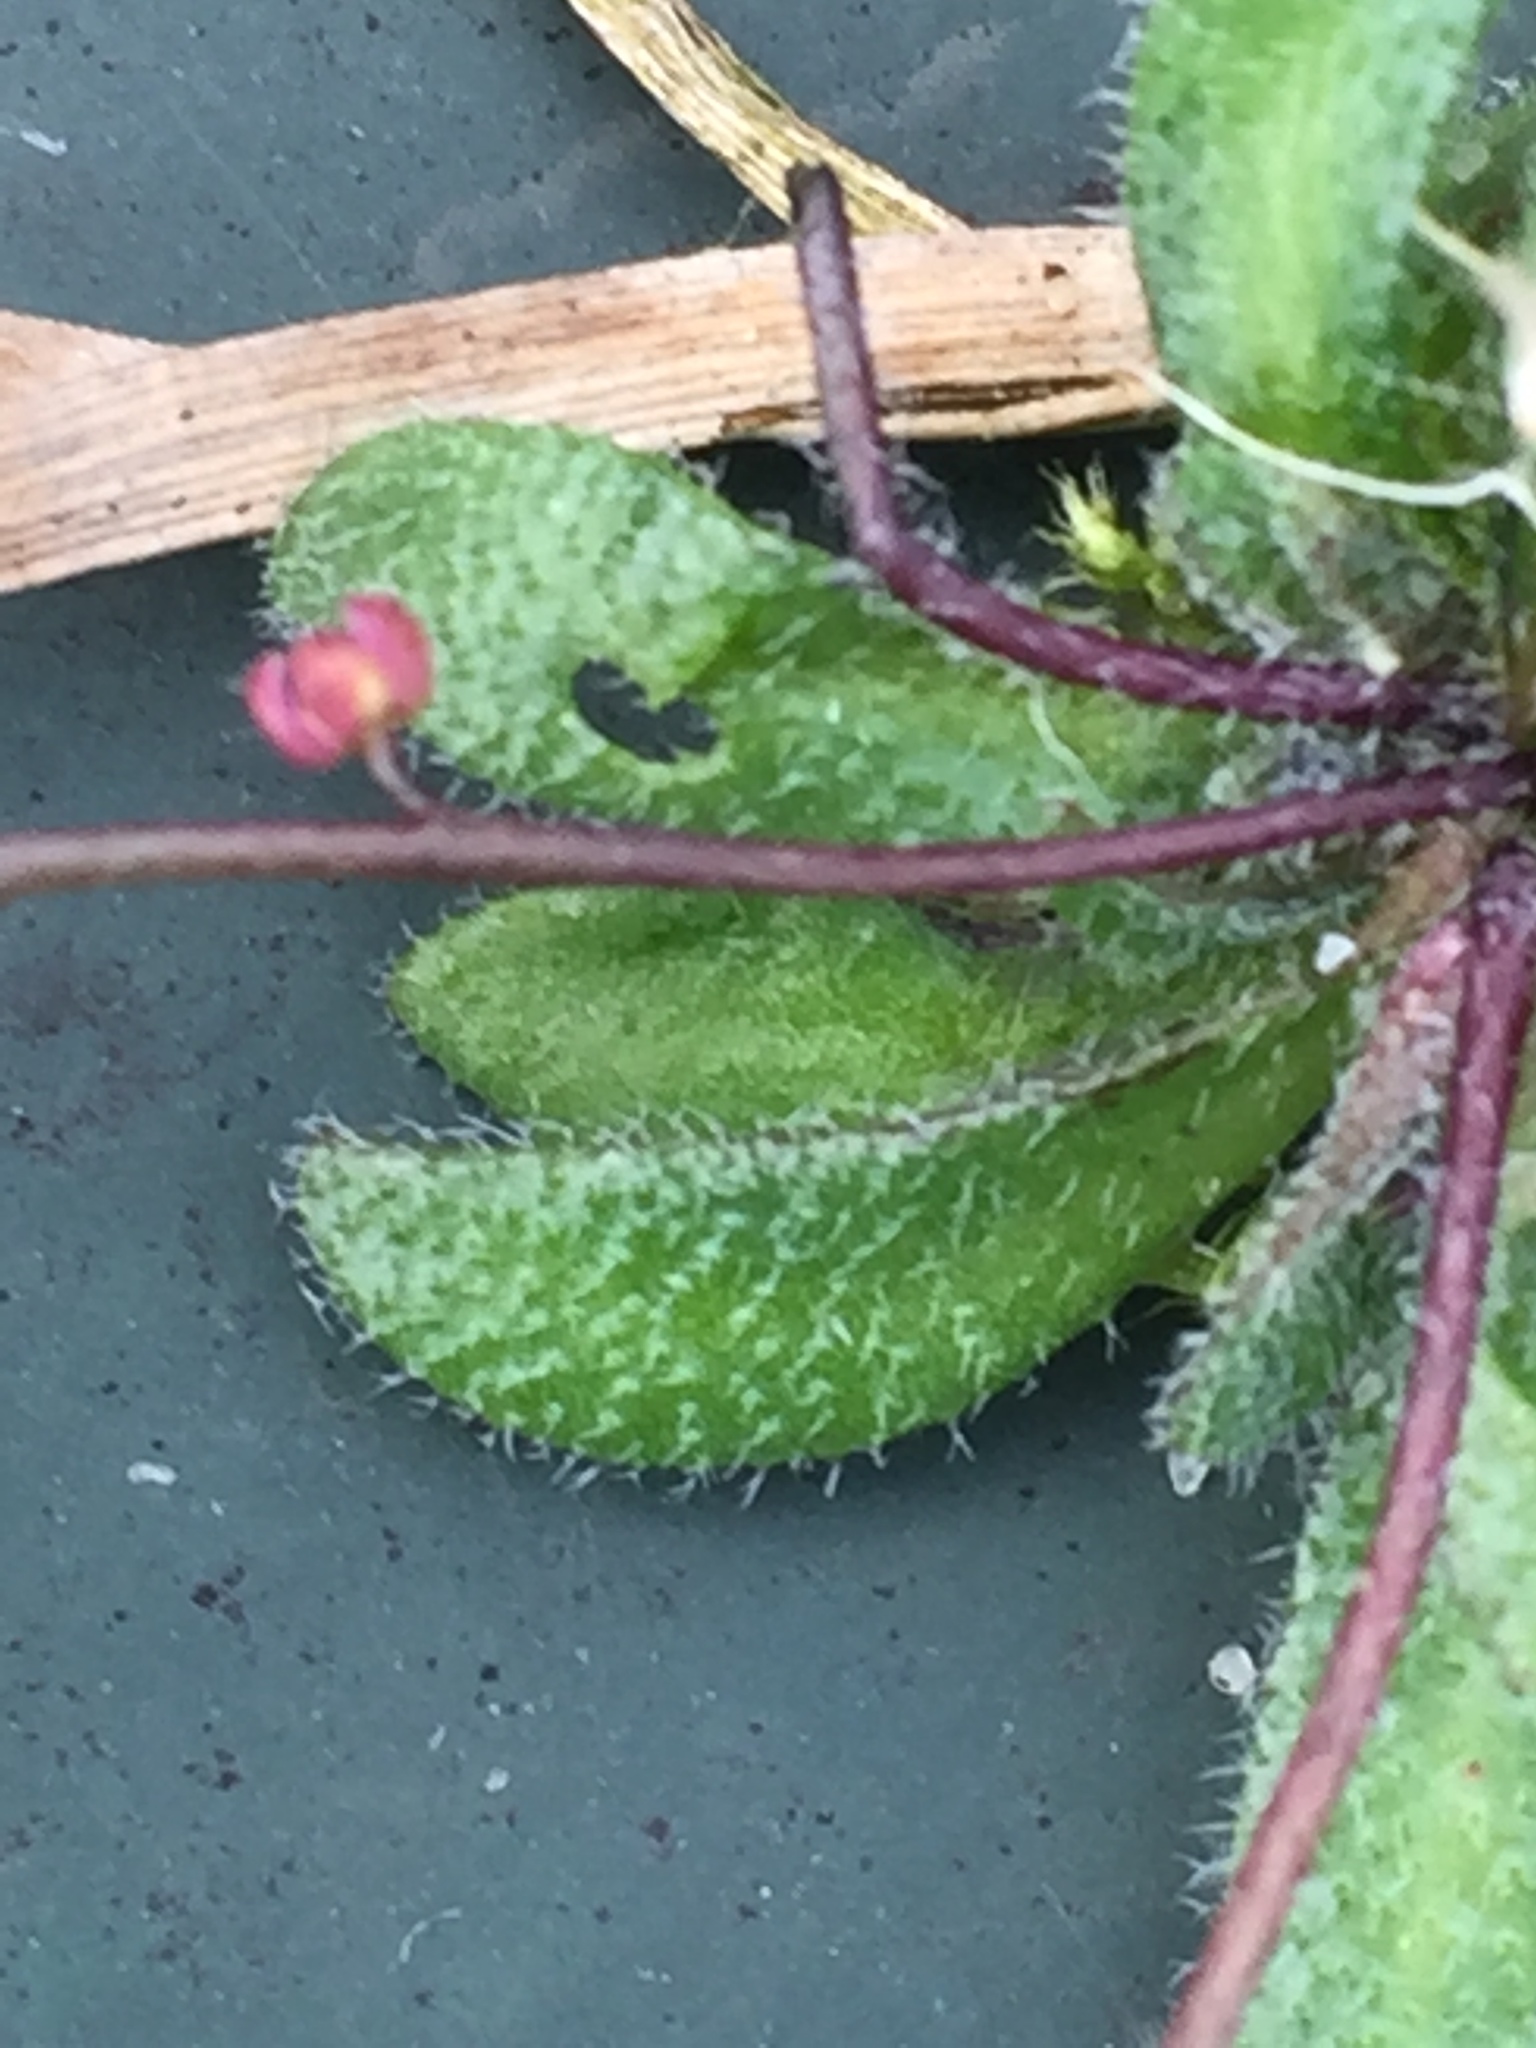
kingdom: Plantae
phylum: Tracheophyta
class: Magnoliopsida
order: Brassicales
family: Brassicaceae
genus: Draba
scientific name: Draba verna
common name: Spring draba
